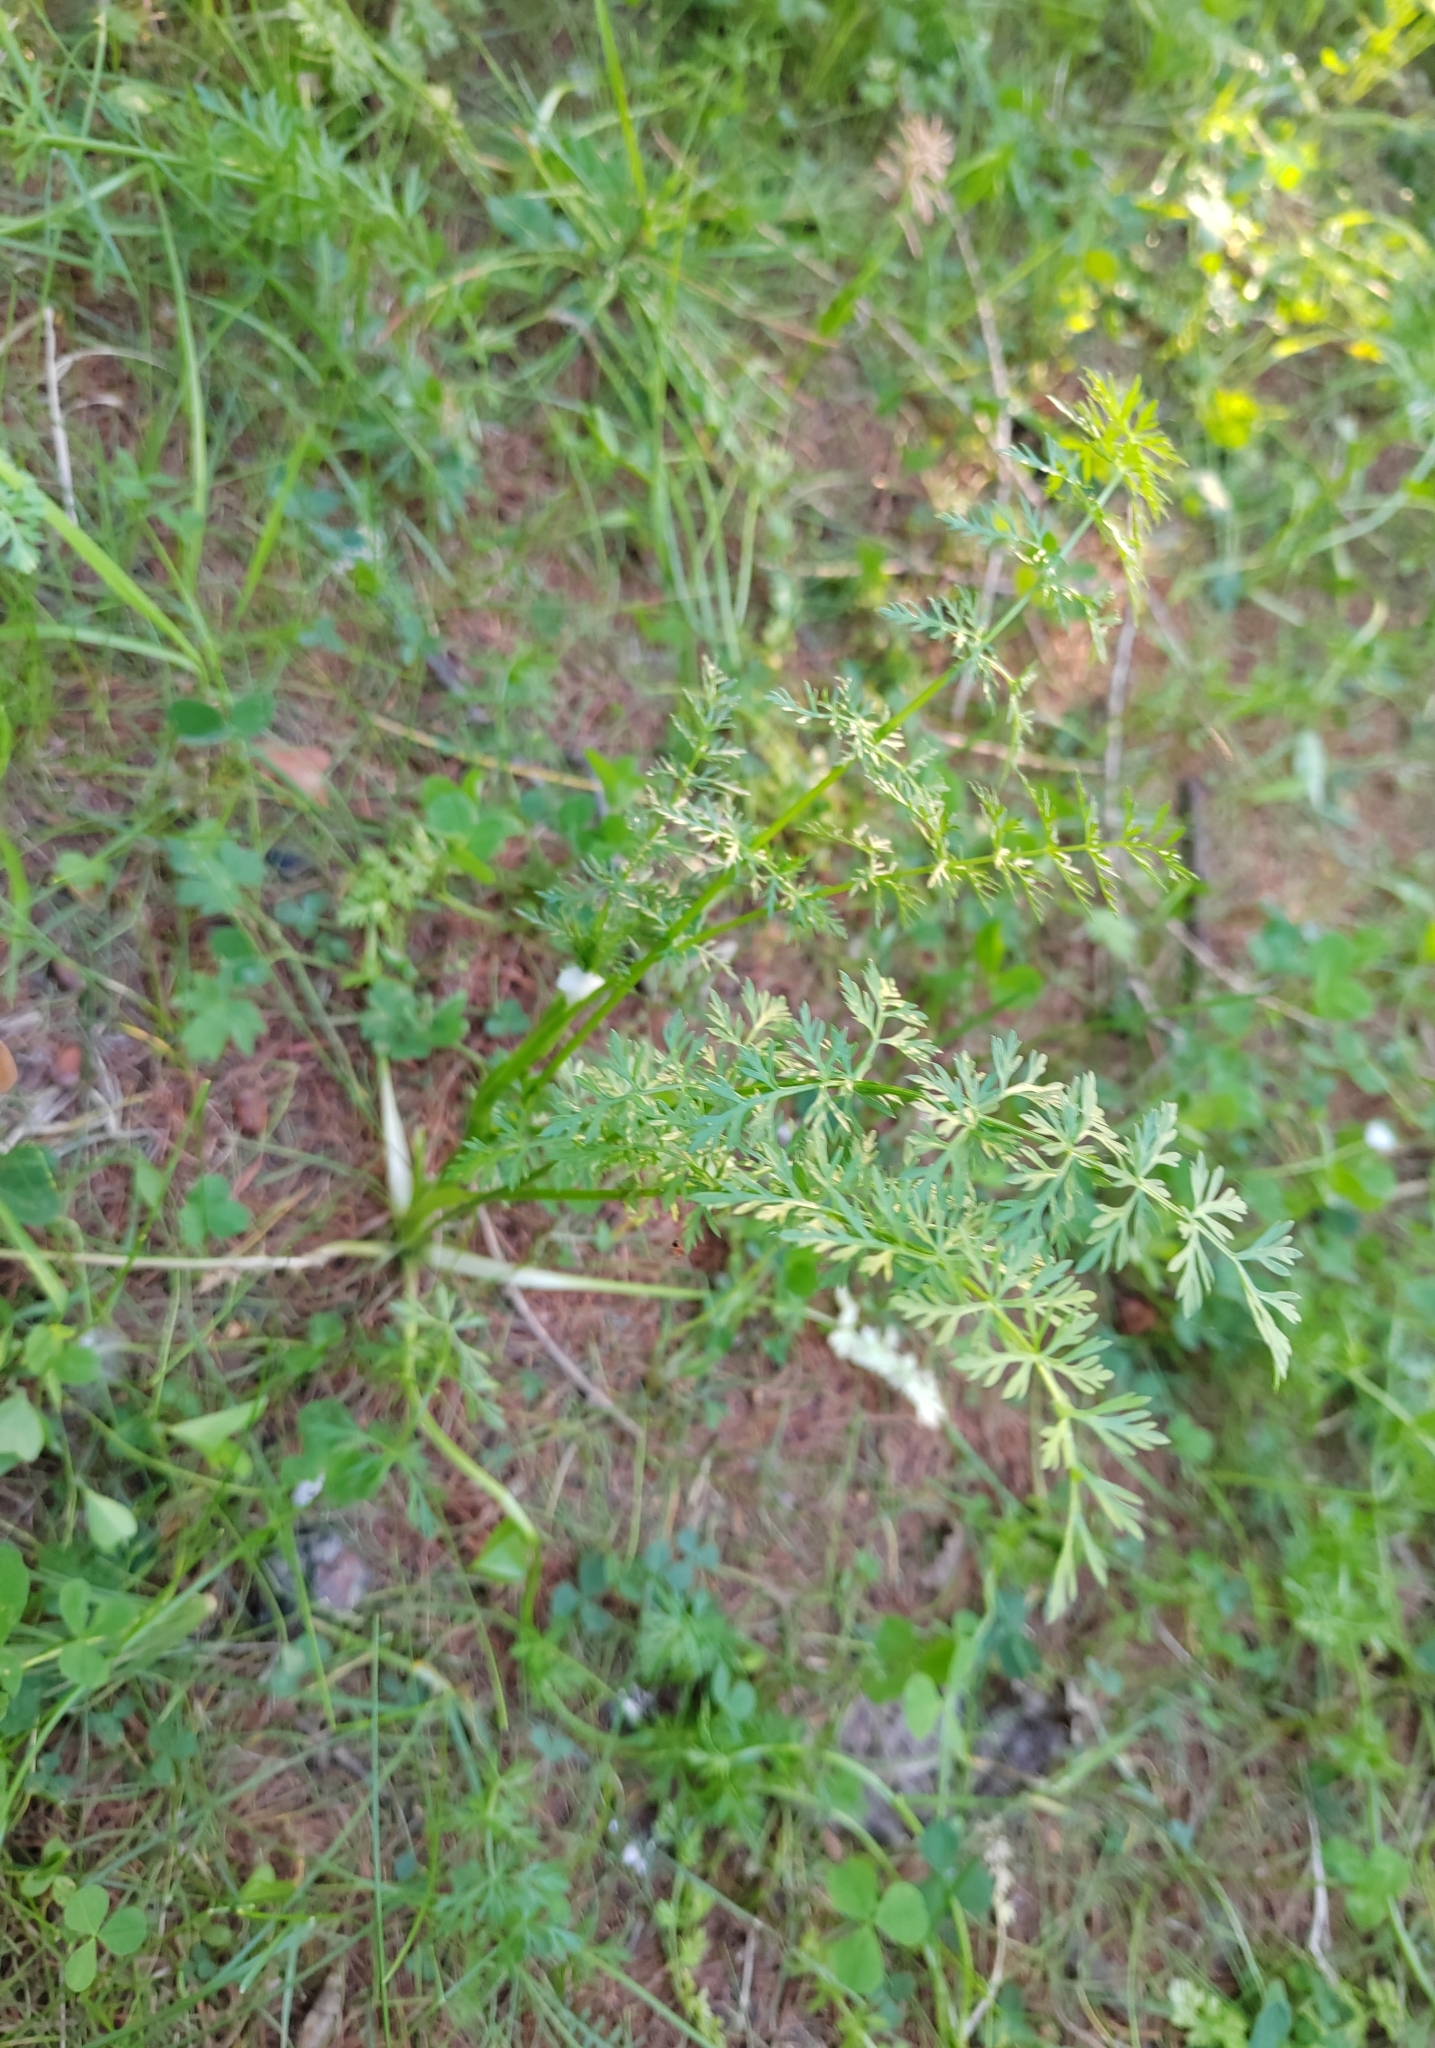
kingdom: Plantae
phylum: Tracheophyta
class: Magnoliopsida
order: Apiales
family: Apiaceae
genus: Carum
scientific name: Carum carvi
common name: Caraway
